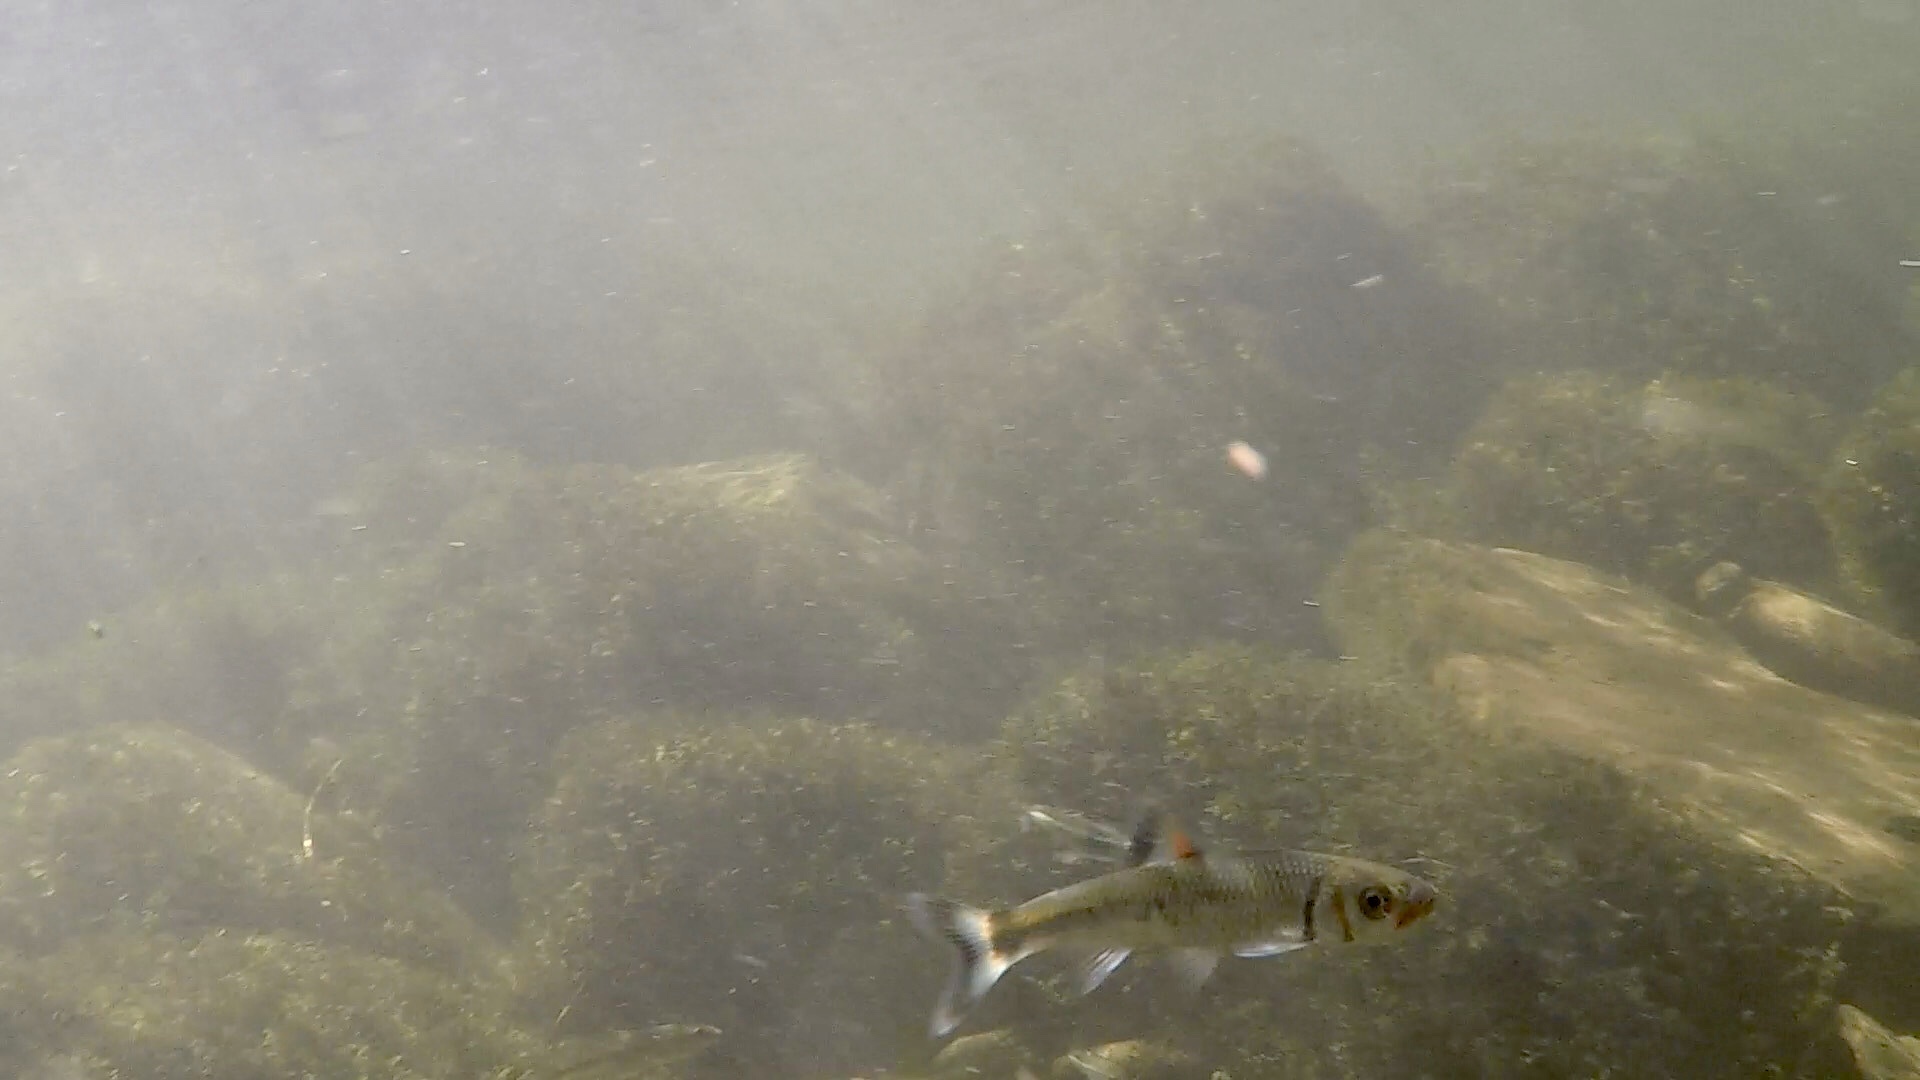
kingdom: Animalia
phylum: Chordata
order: Cypriniformes
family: Cyprinidae
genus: Luxilus
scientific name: Luxilus
